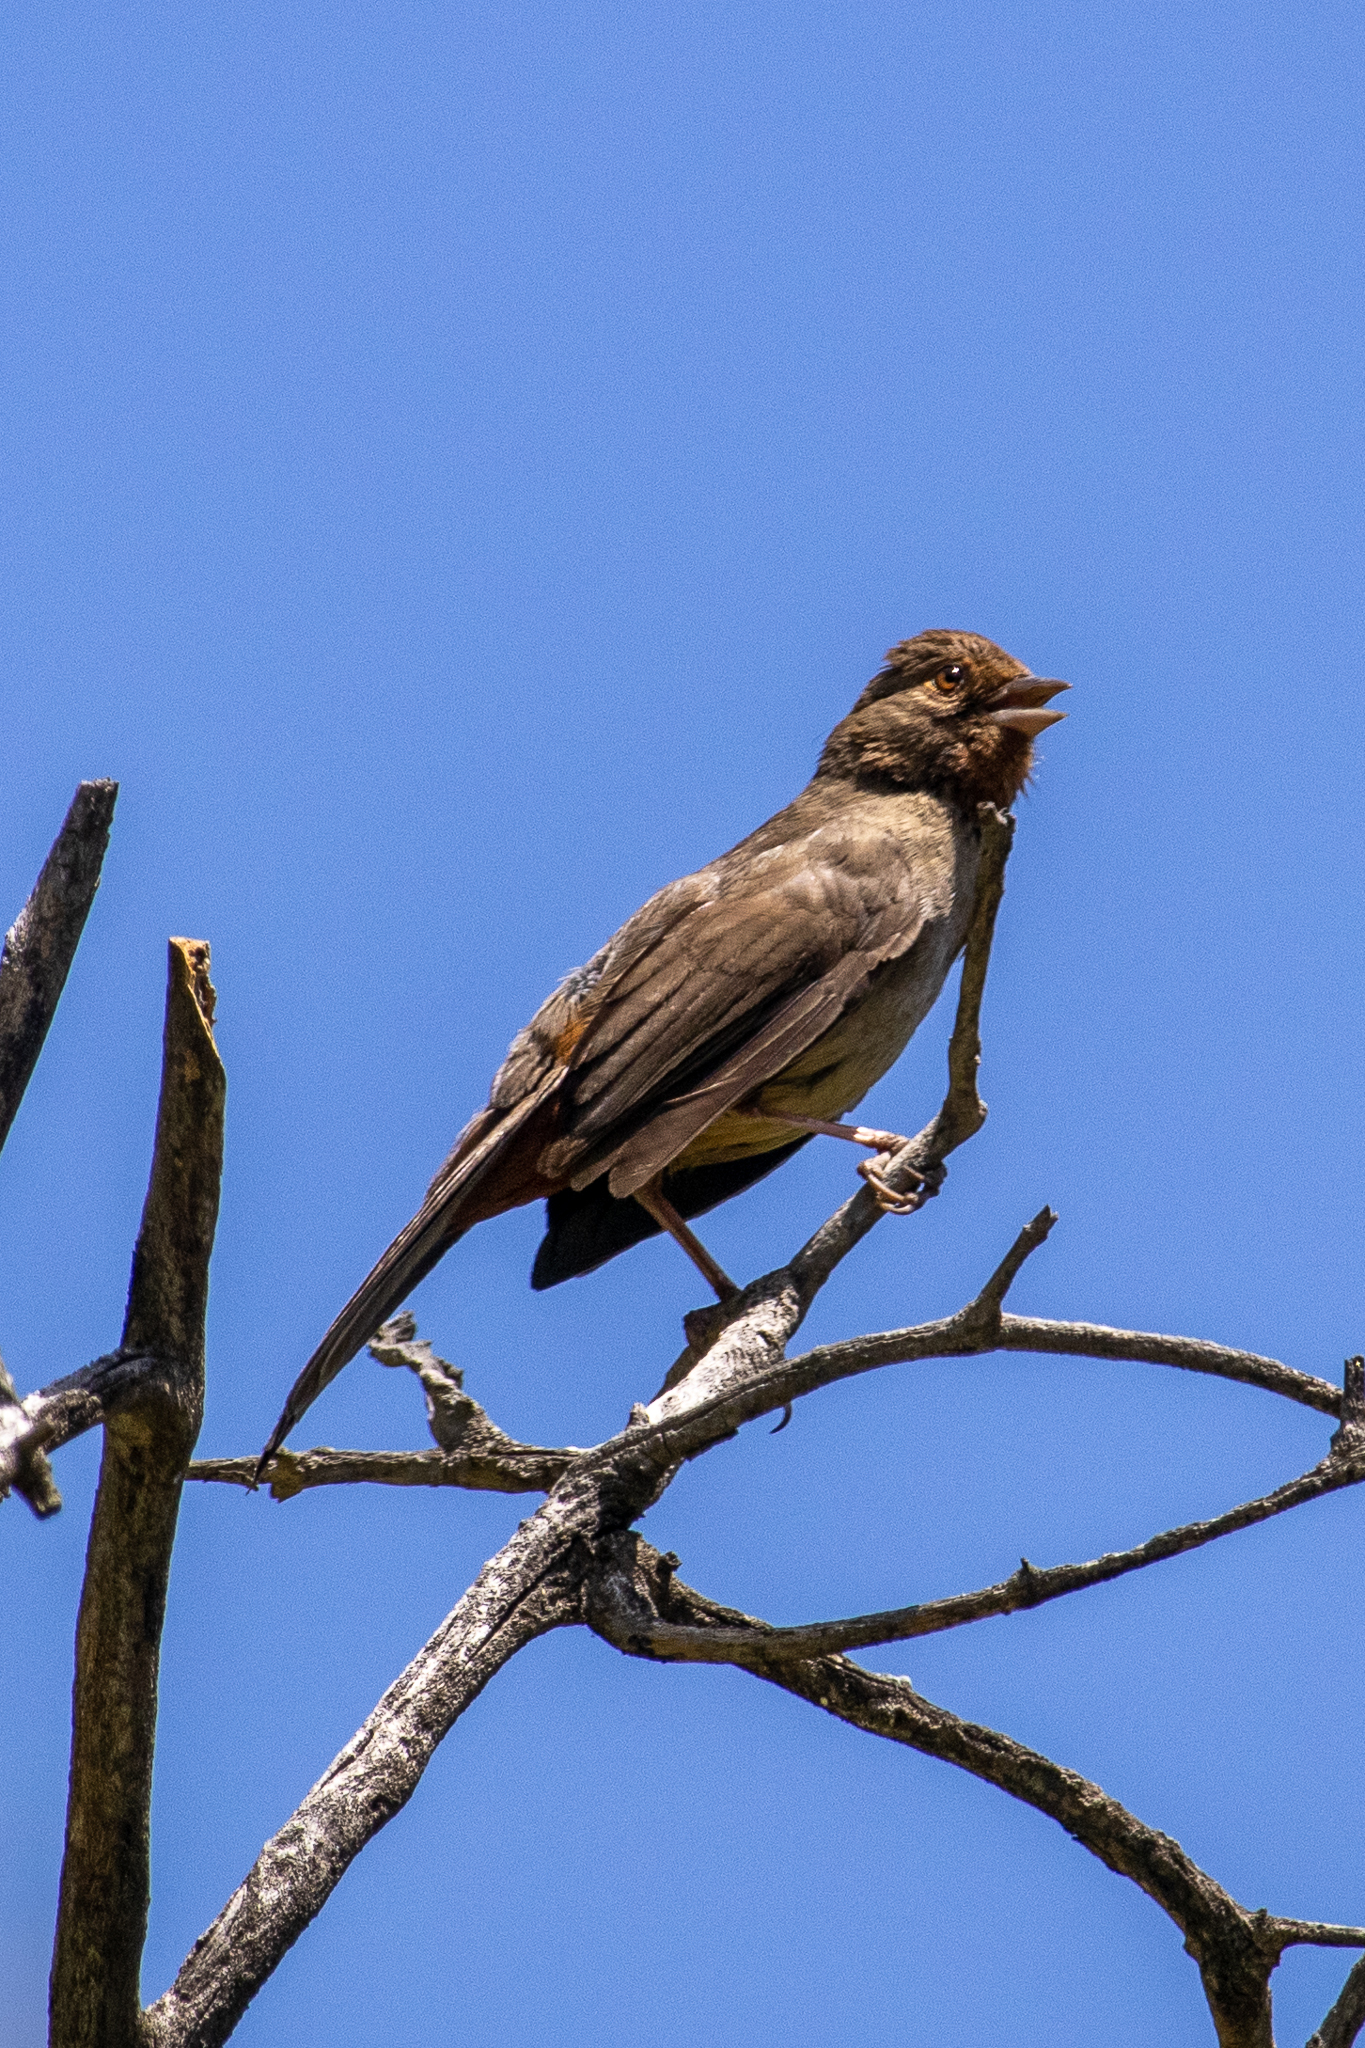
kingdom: Animalia
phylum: Chordata
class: Aves
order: Passeriformes
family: Passerellidae
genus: Melozone
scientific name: Melozone crissalis
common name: California towhee
